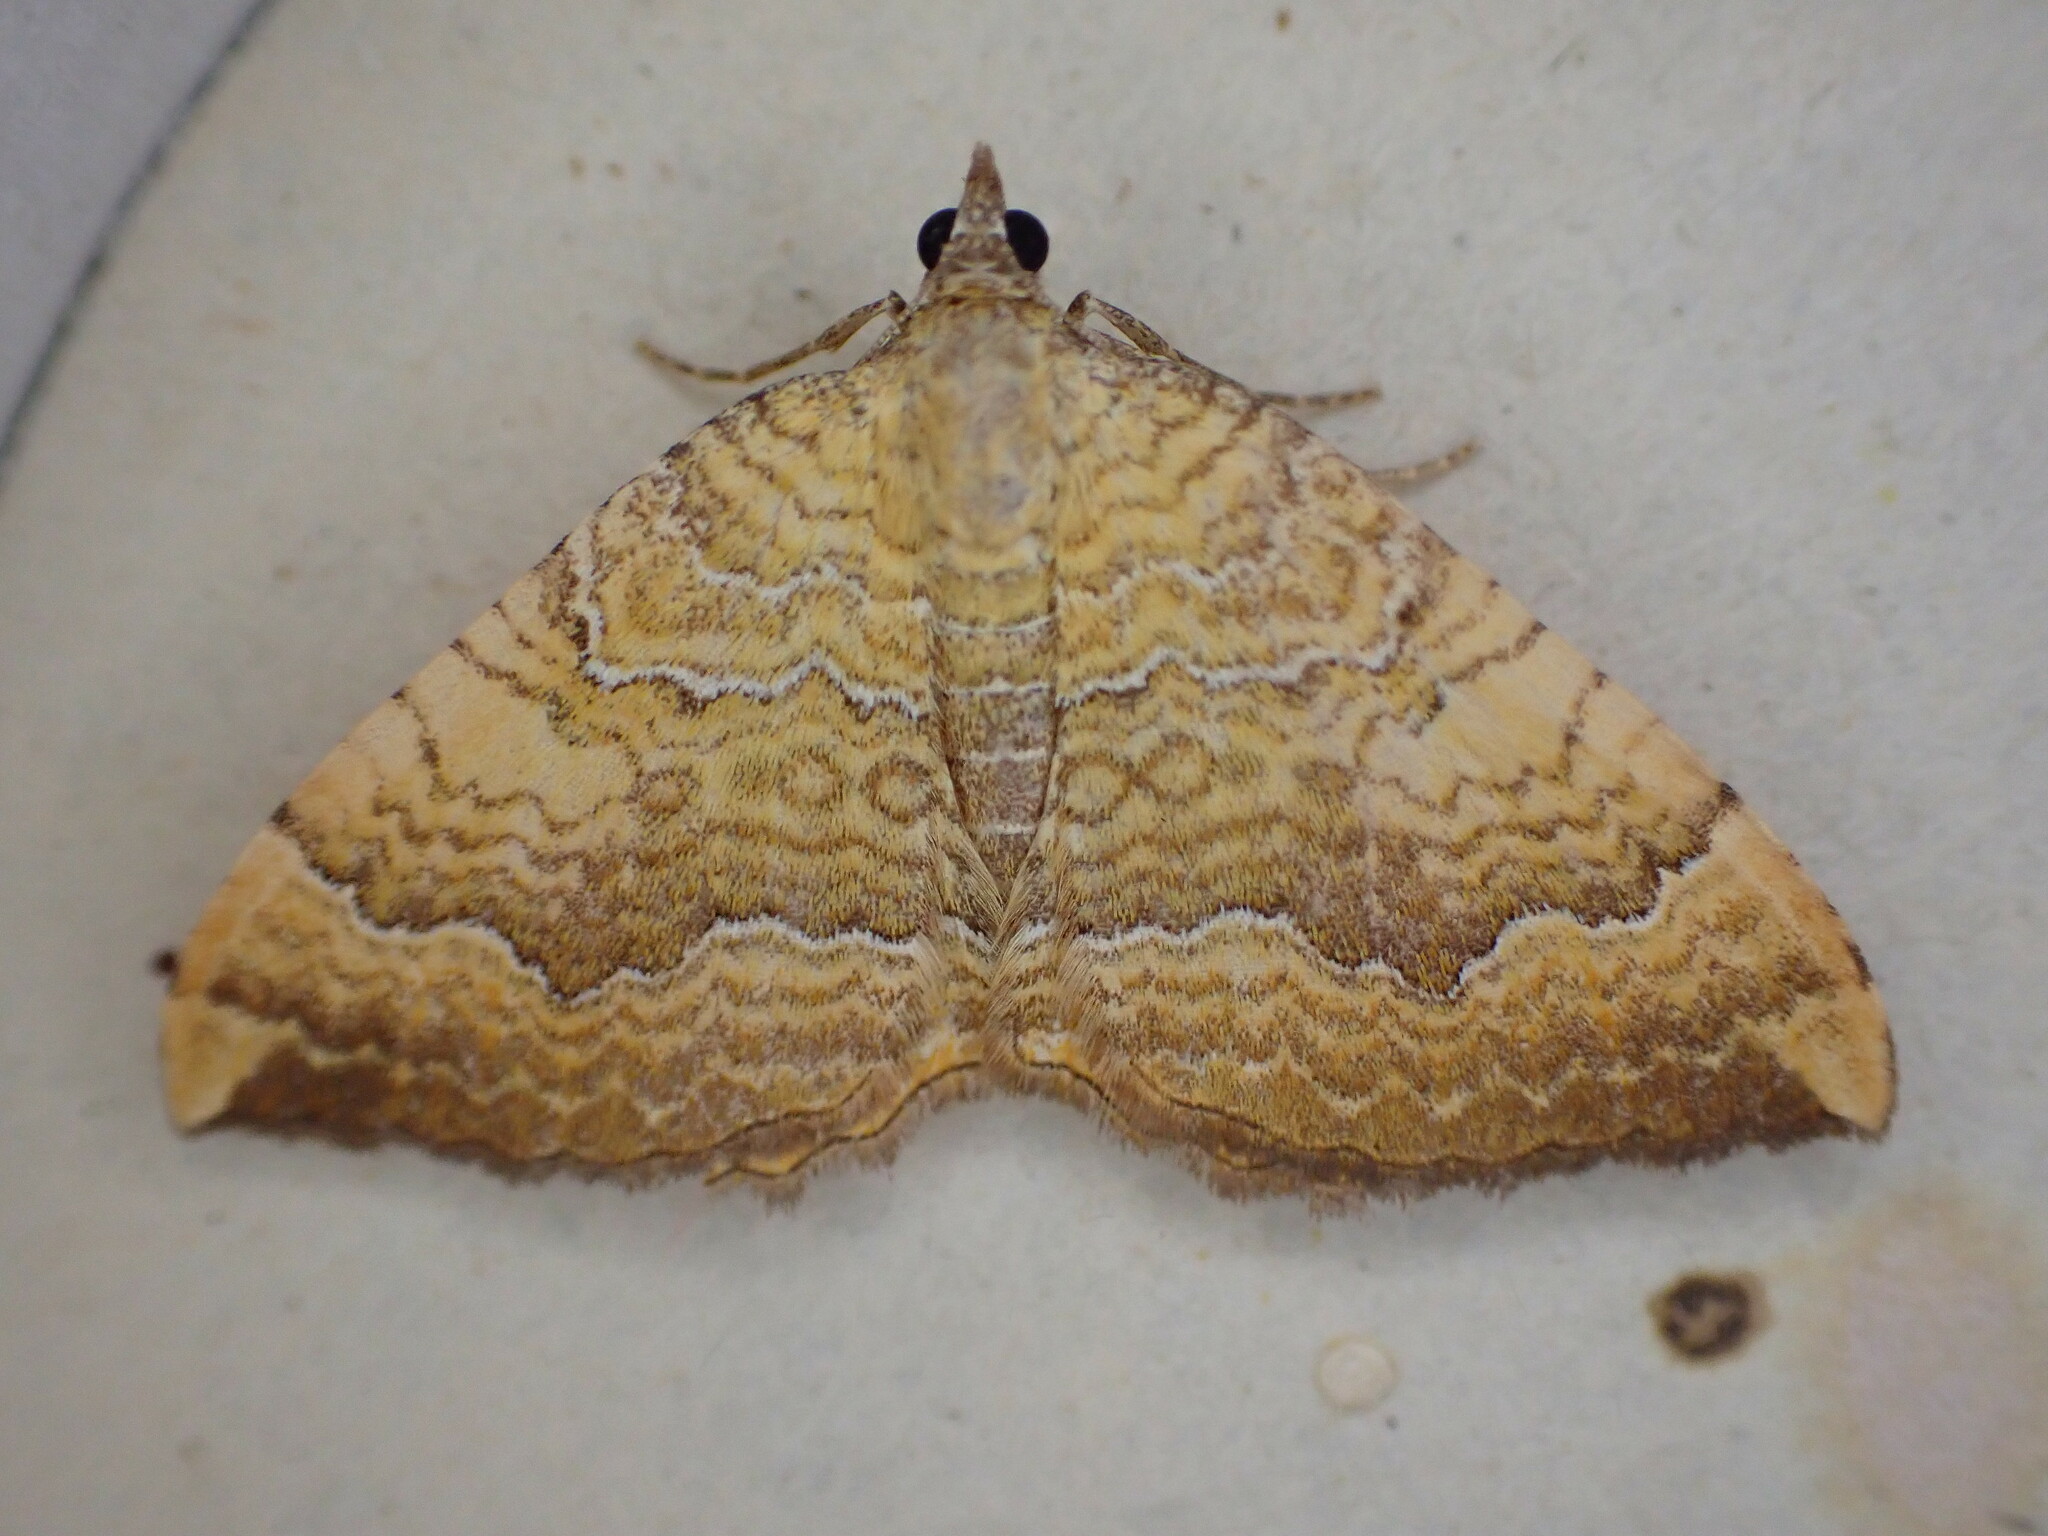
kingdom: Animalia
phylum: Arthropoda
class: Insecta
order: Lepidoptera
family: Geometridae
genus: Camptogramma
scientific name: Camptogramma bilineata
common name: Yellow shell
